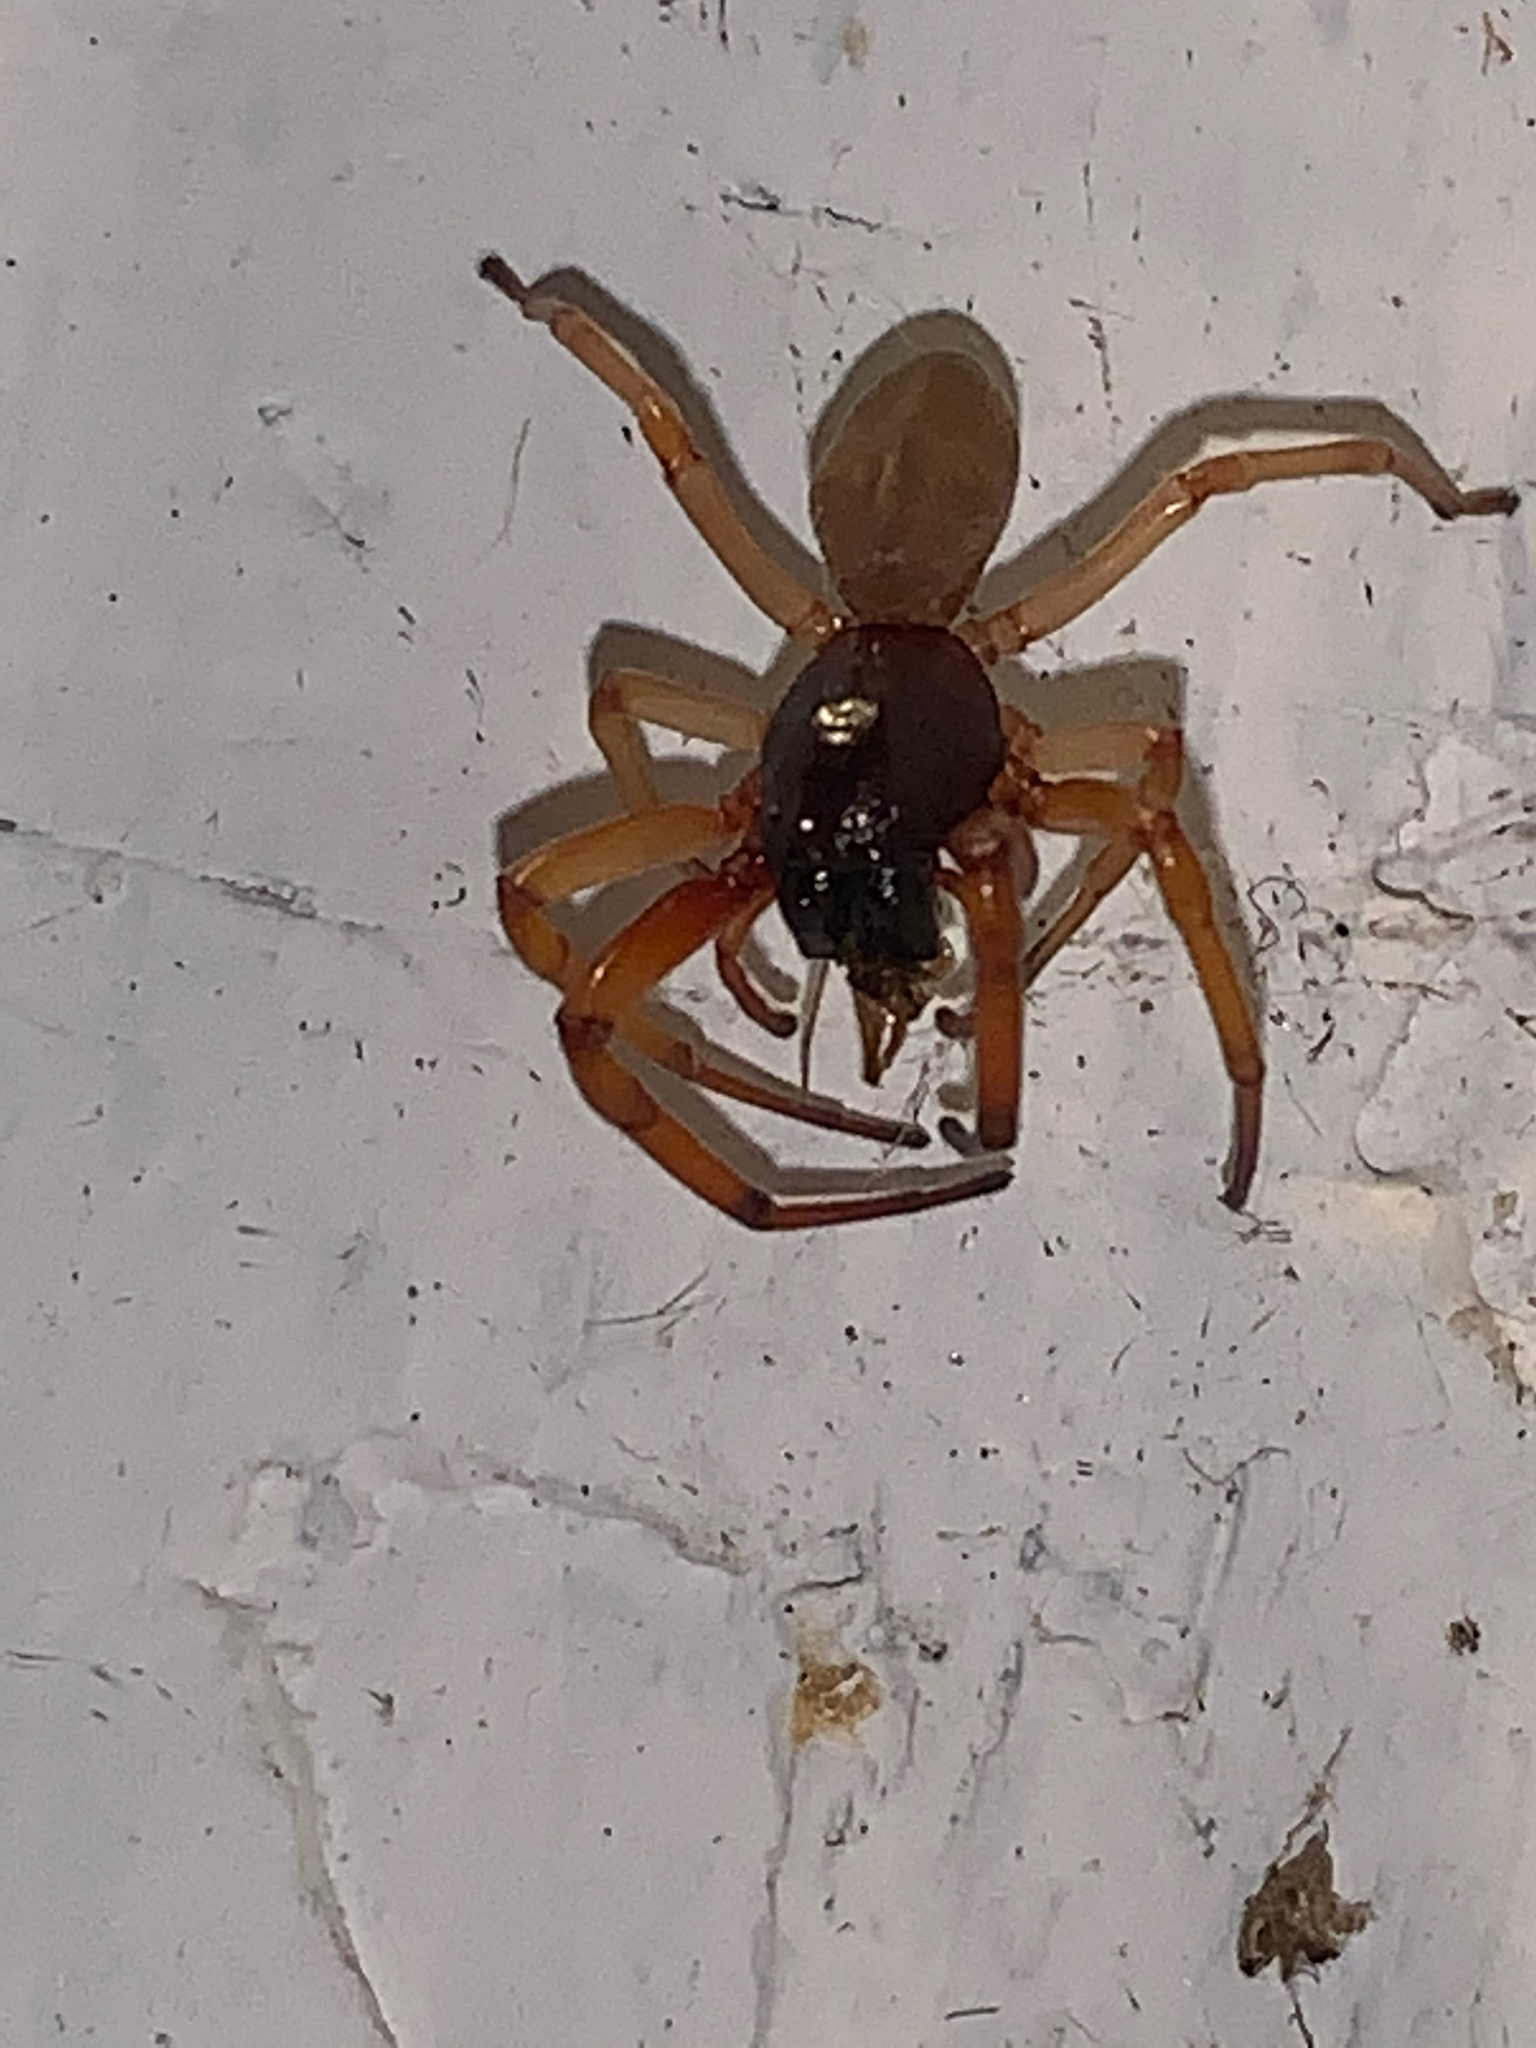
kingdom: Animalia
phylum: Arthropoda
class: Arachnida
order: Araneae
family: Trachelidae
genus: Trachelas
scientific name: Trachelas tranquillus
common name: Broad-faced sac spider
